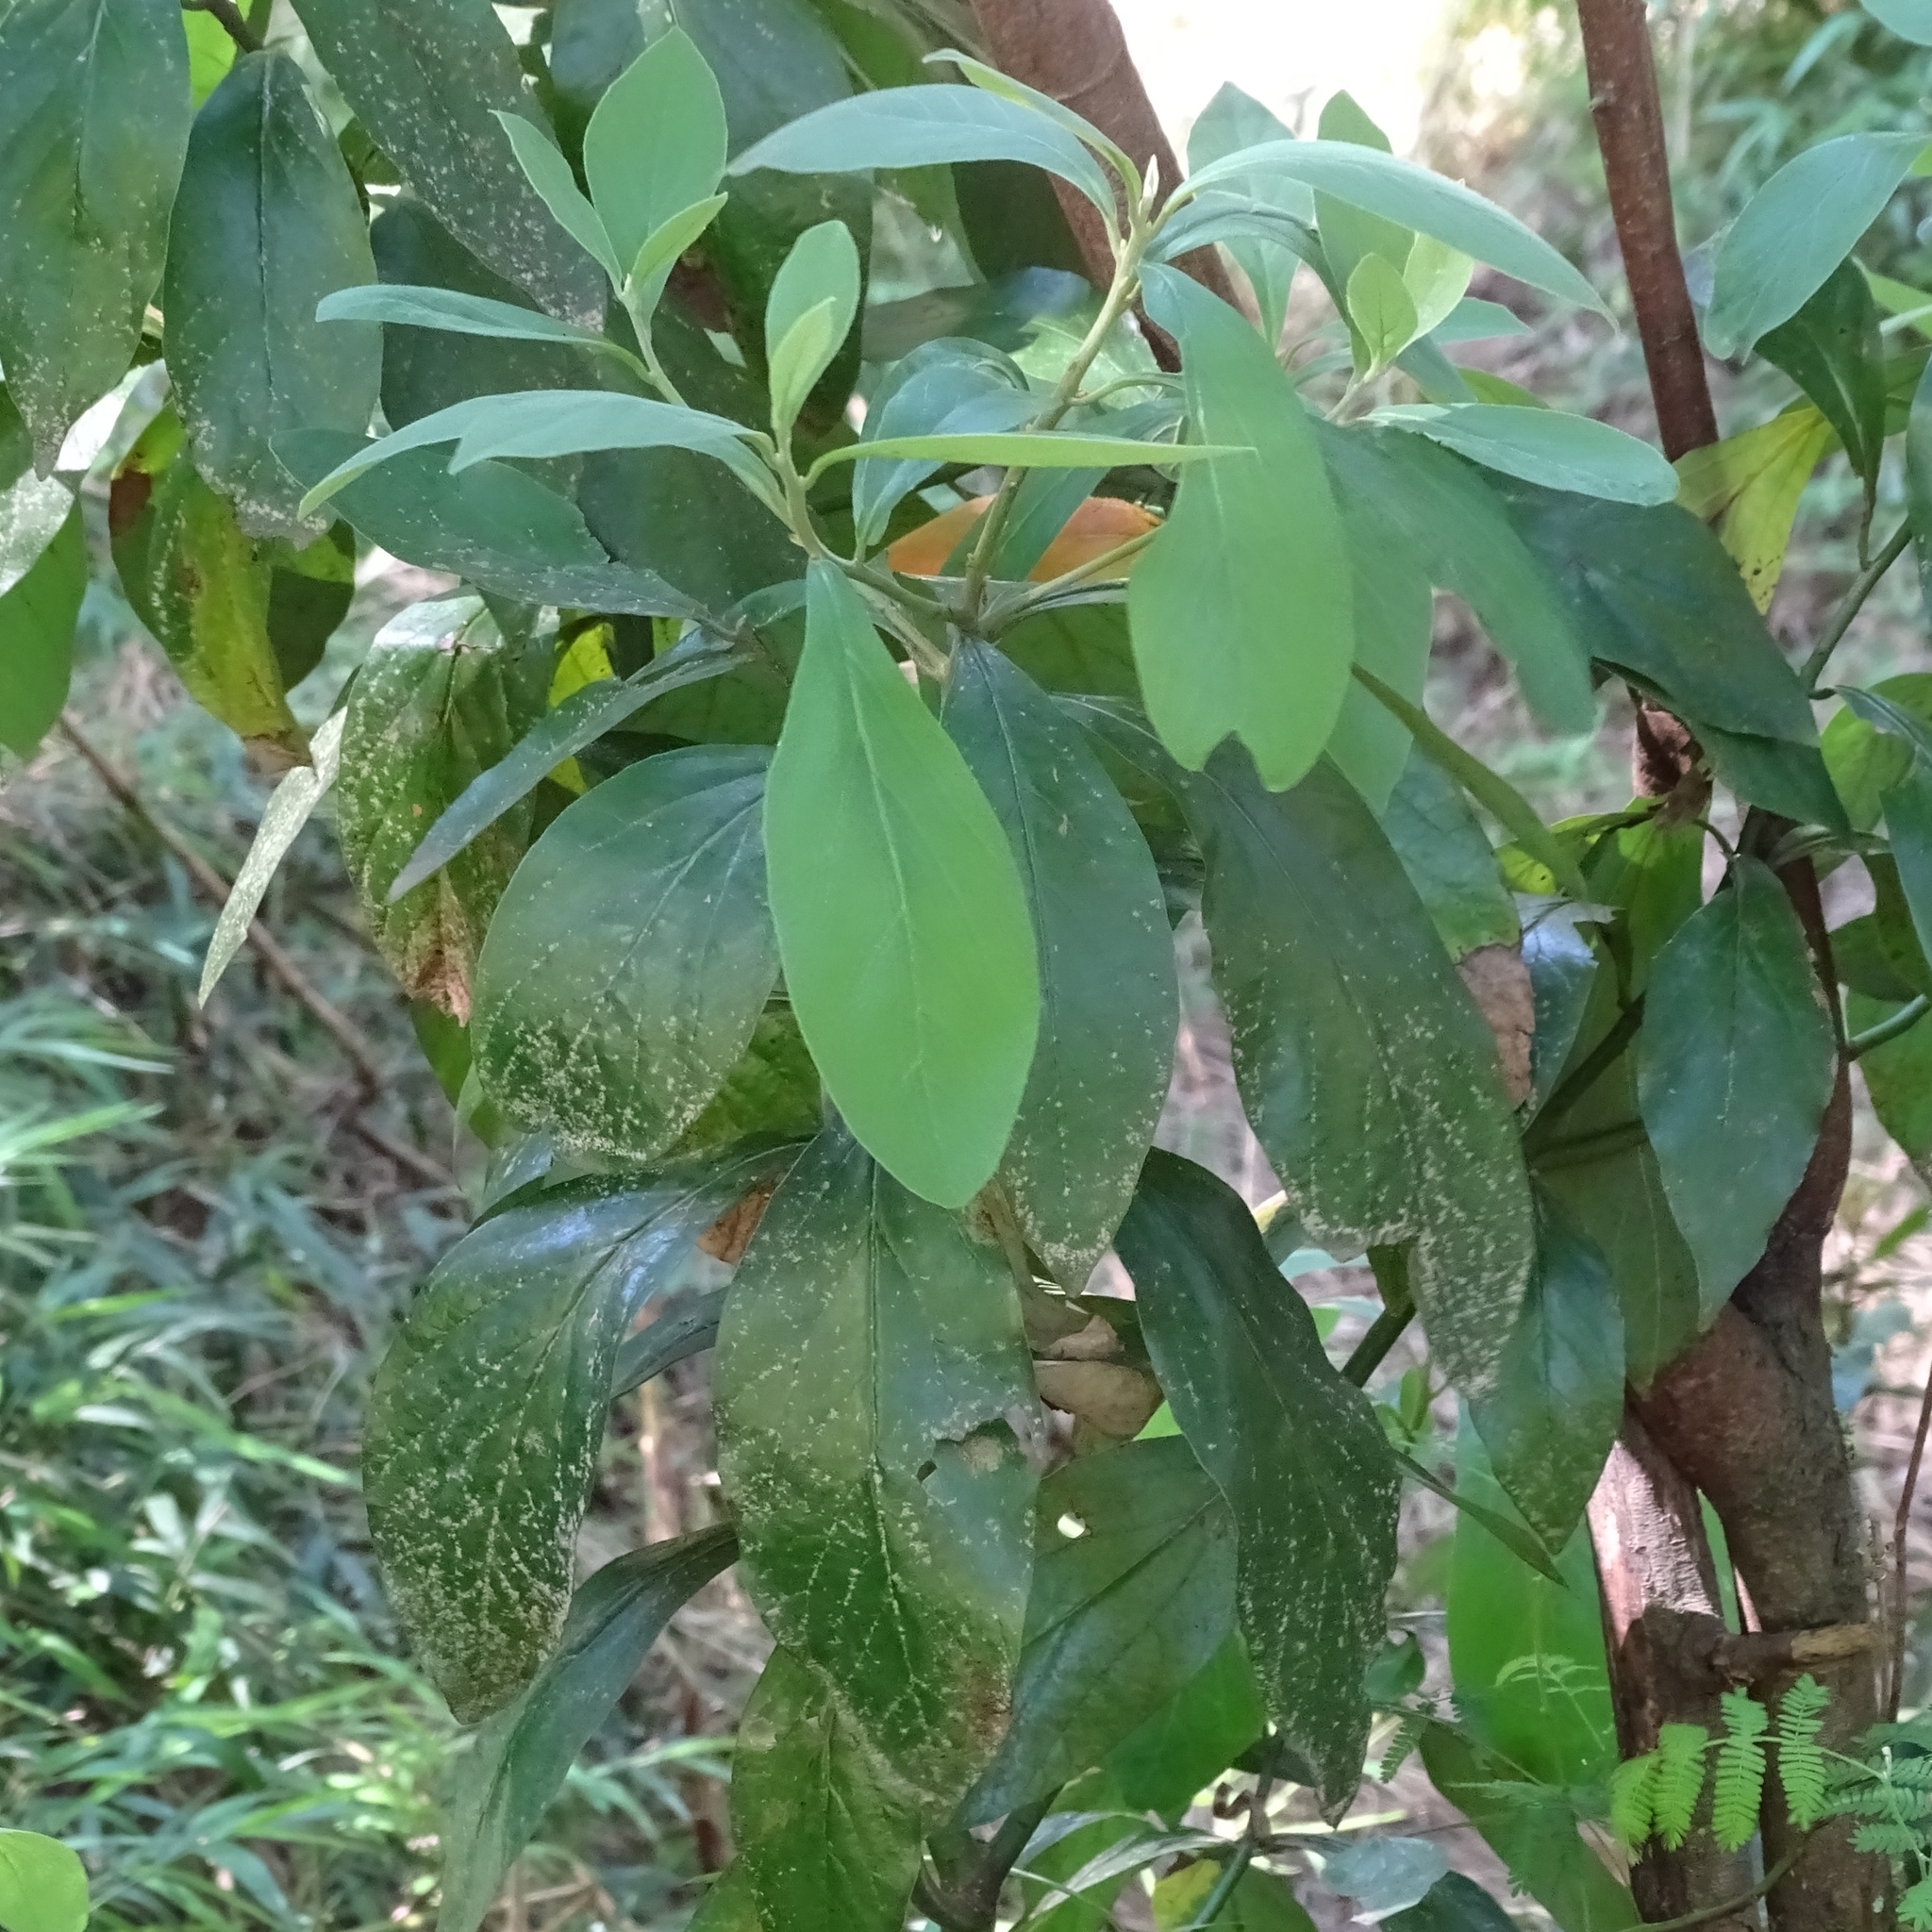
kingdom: Plantae
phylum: Tracheophyta
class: Magnoliopsida
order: Laurales
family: Lauraceae
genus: Persea
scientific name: Persea lingue
